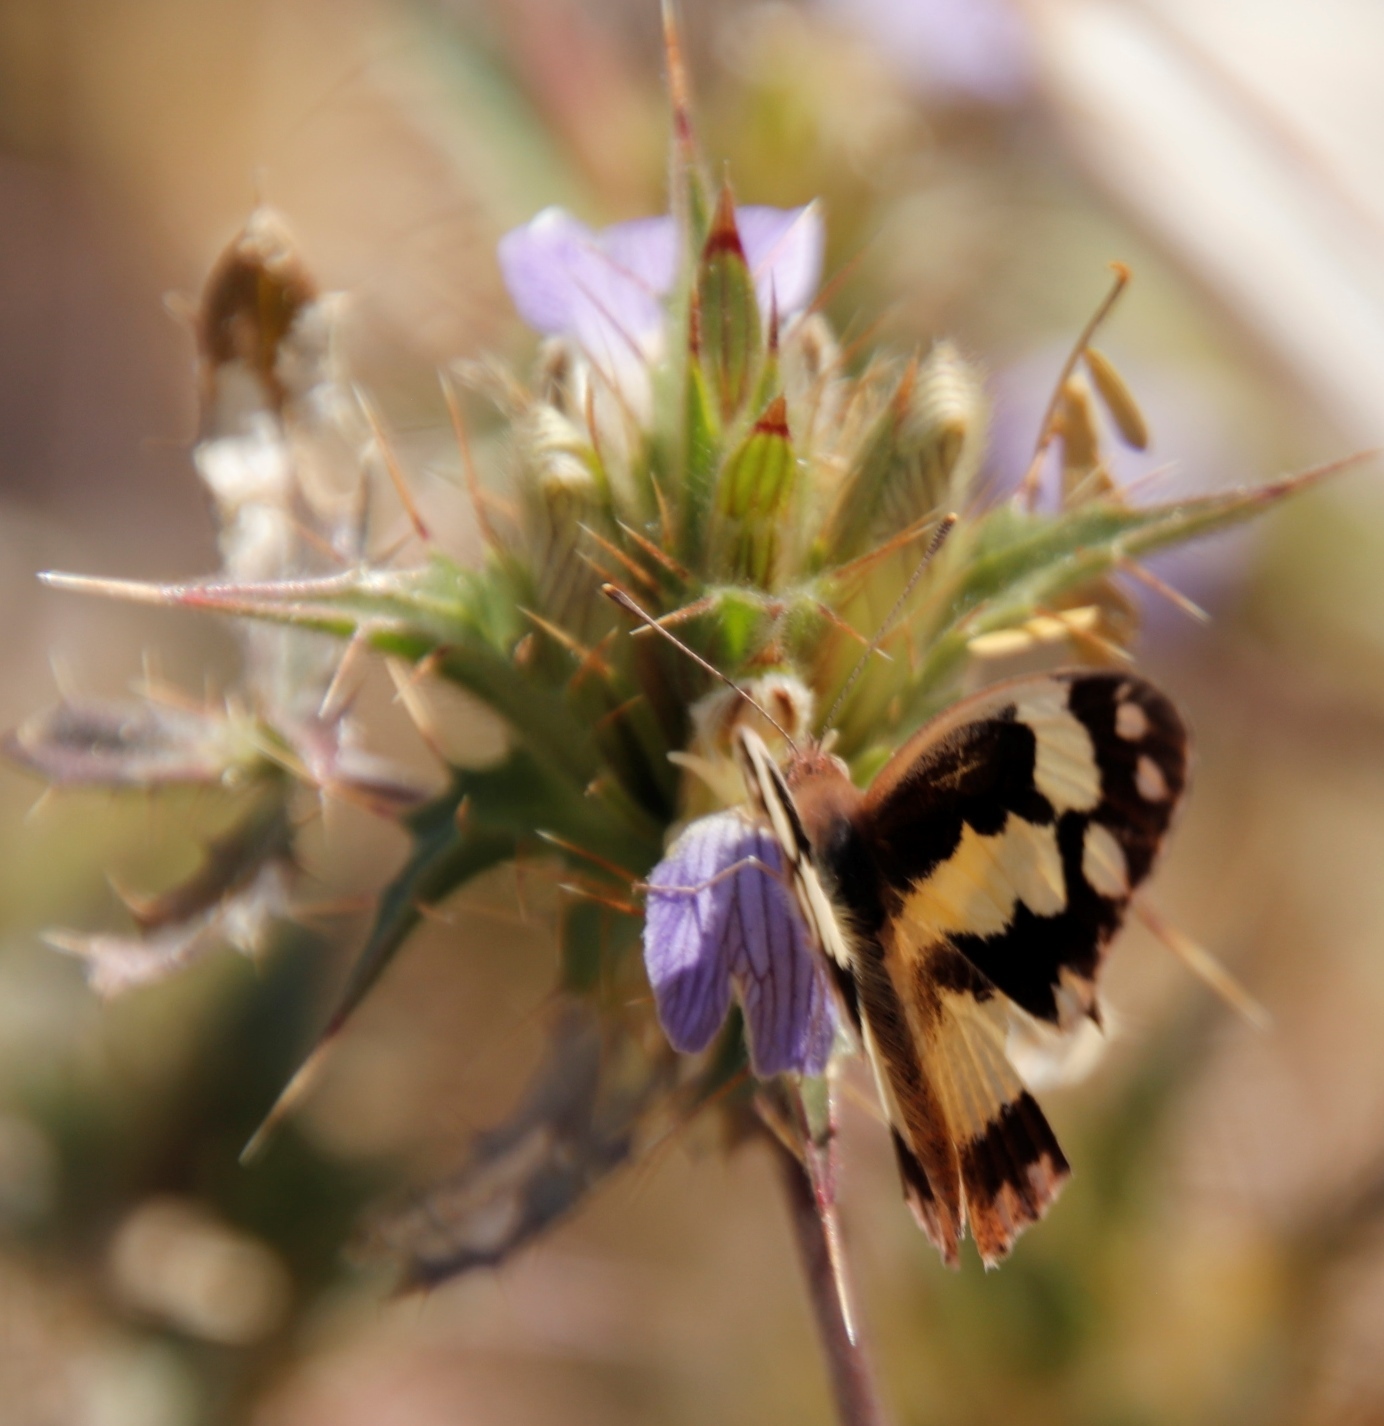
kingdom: Animalia
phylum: Arthropoda
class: Insecta
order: Lepidoptera
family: Pieridae
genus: Pinacopteryx
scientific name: Pinacopteryx eriphia
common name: Zebra white
